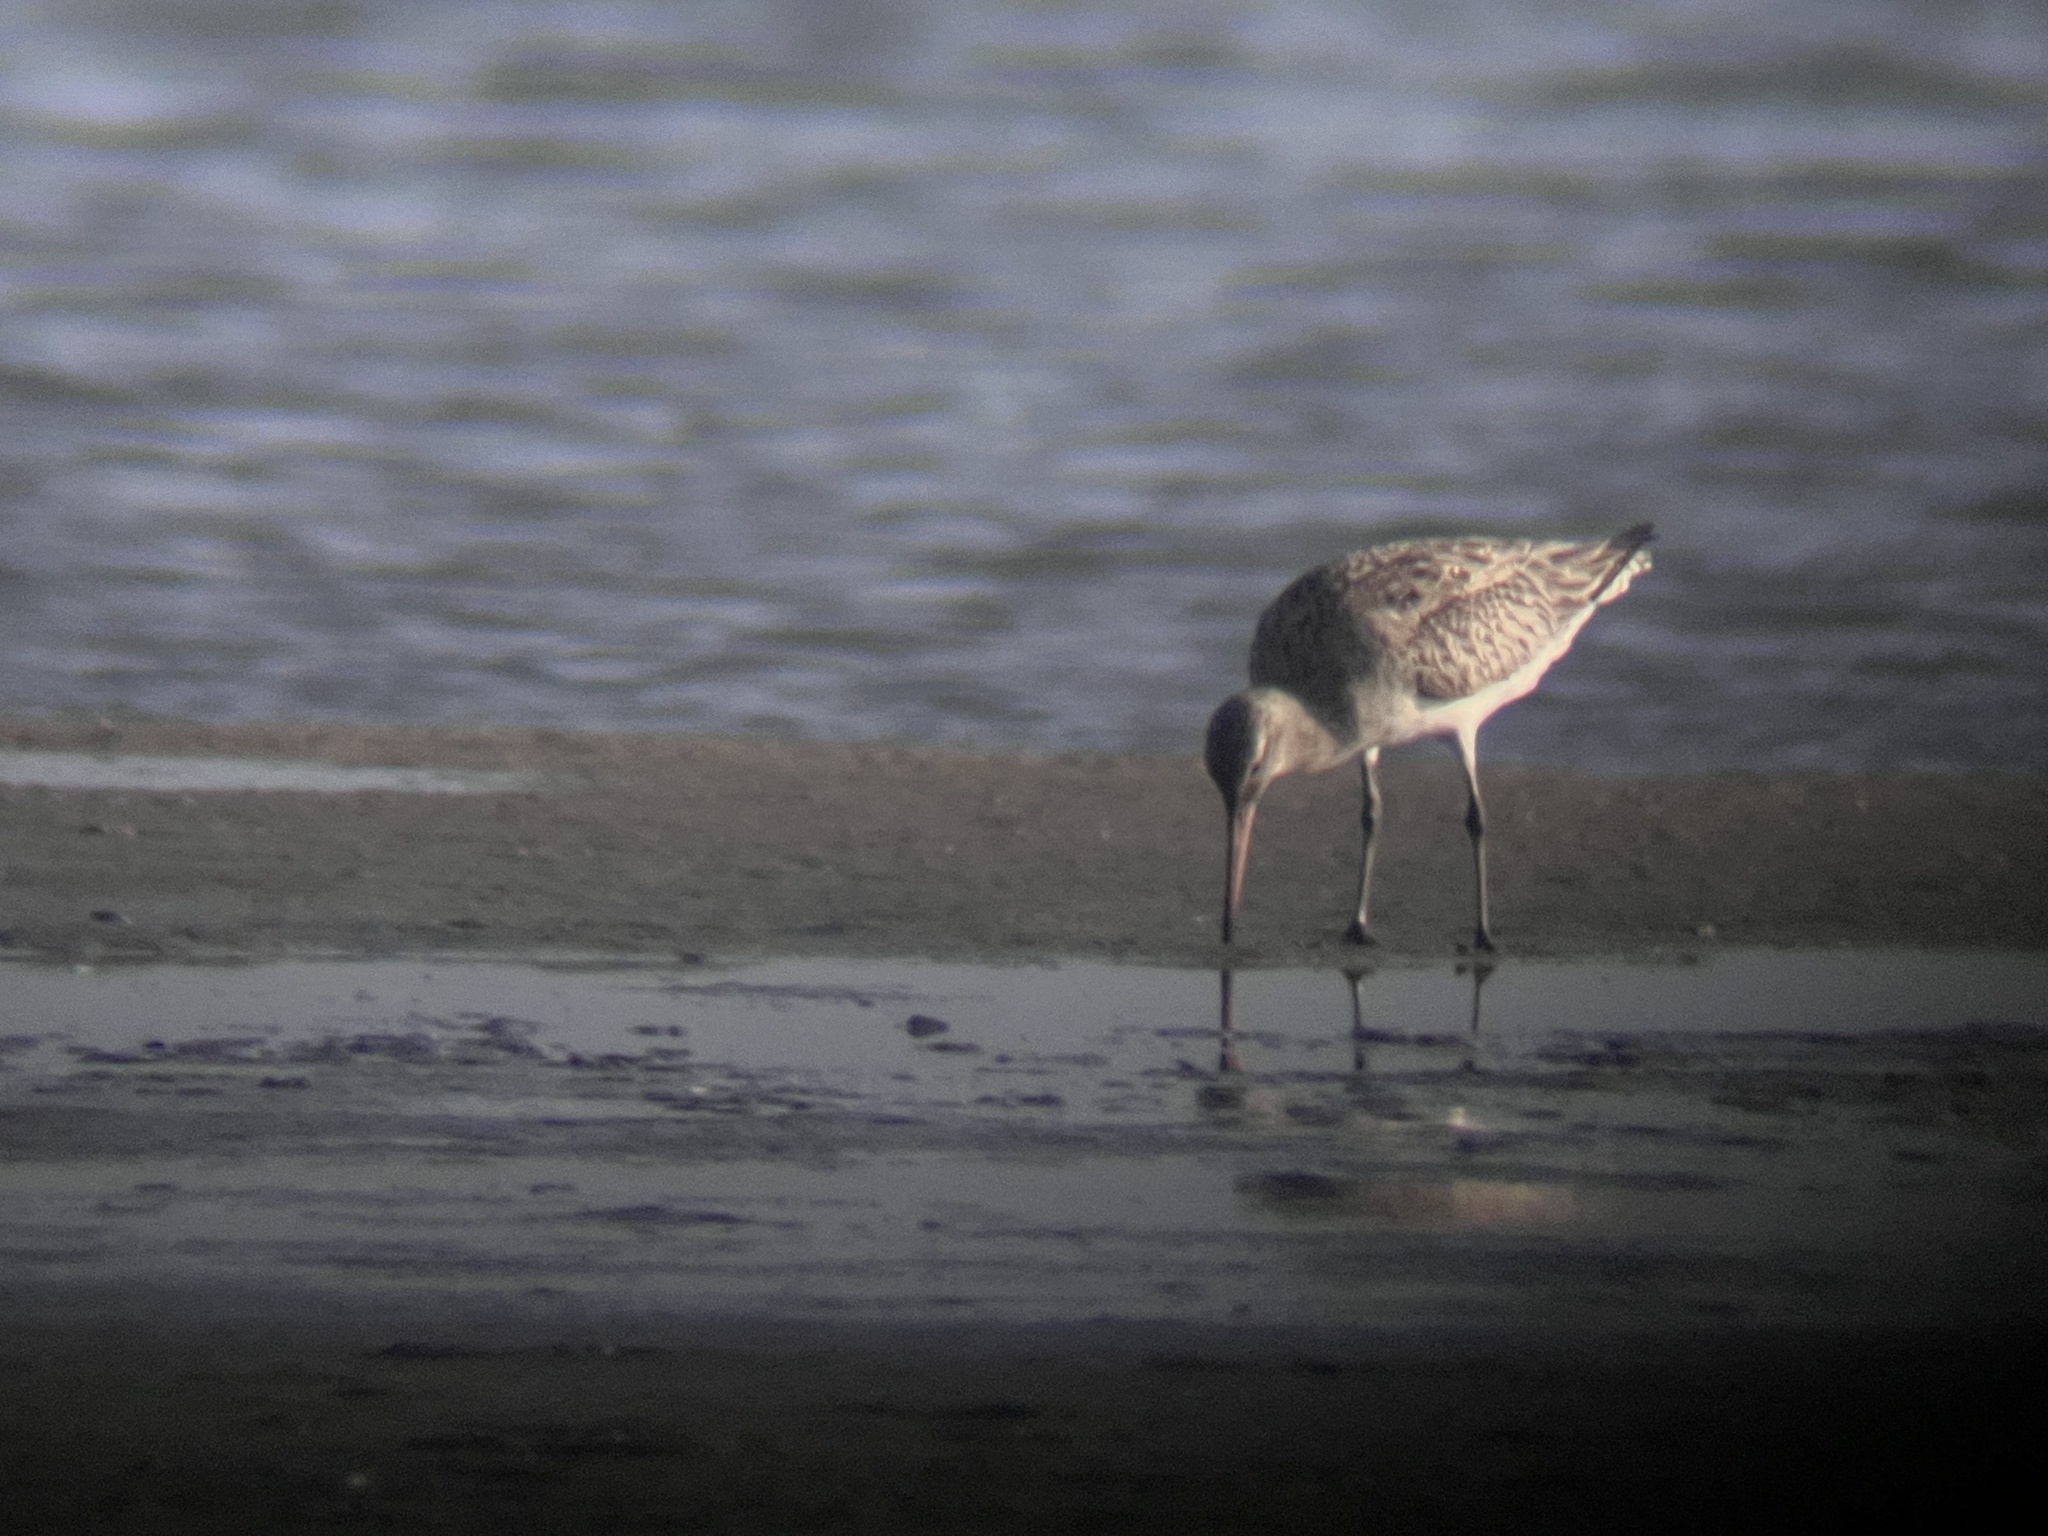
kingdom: Animalia
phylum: Chordata
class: Aves
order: Charadriiformes
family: Scolopacidae
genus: Limosa
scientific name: Limosa lapponica
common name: Bar-tailed godwit
